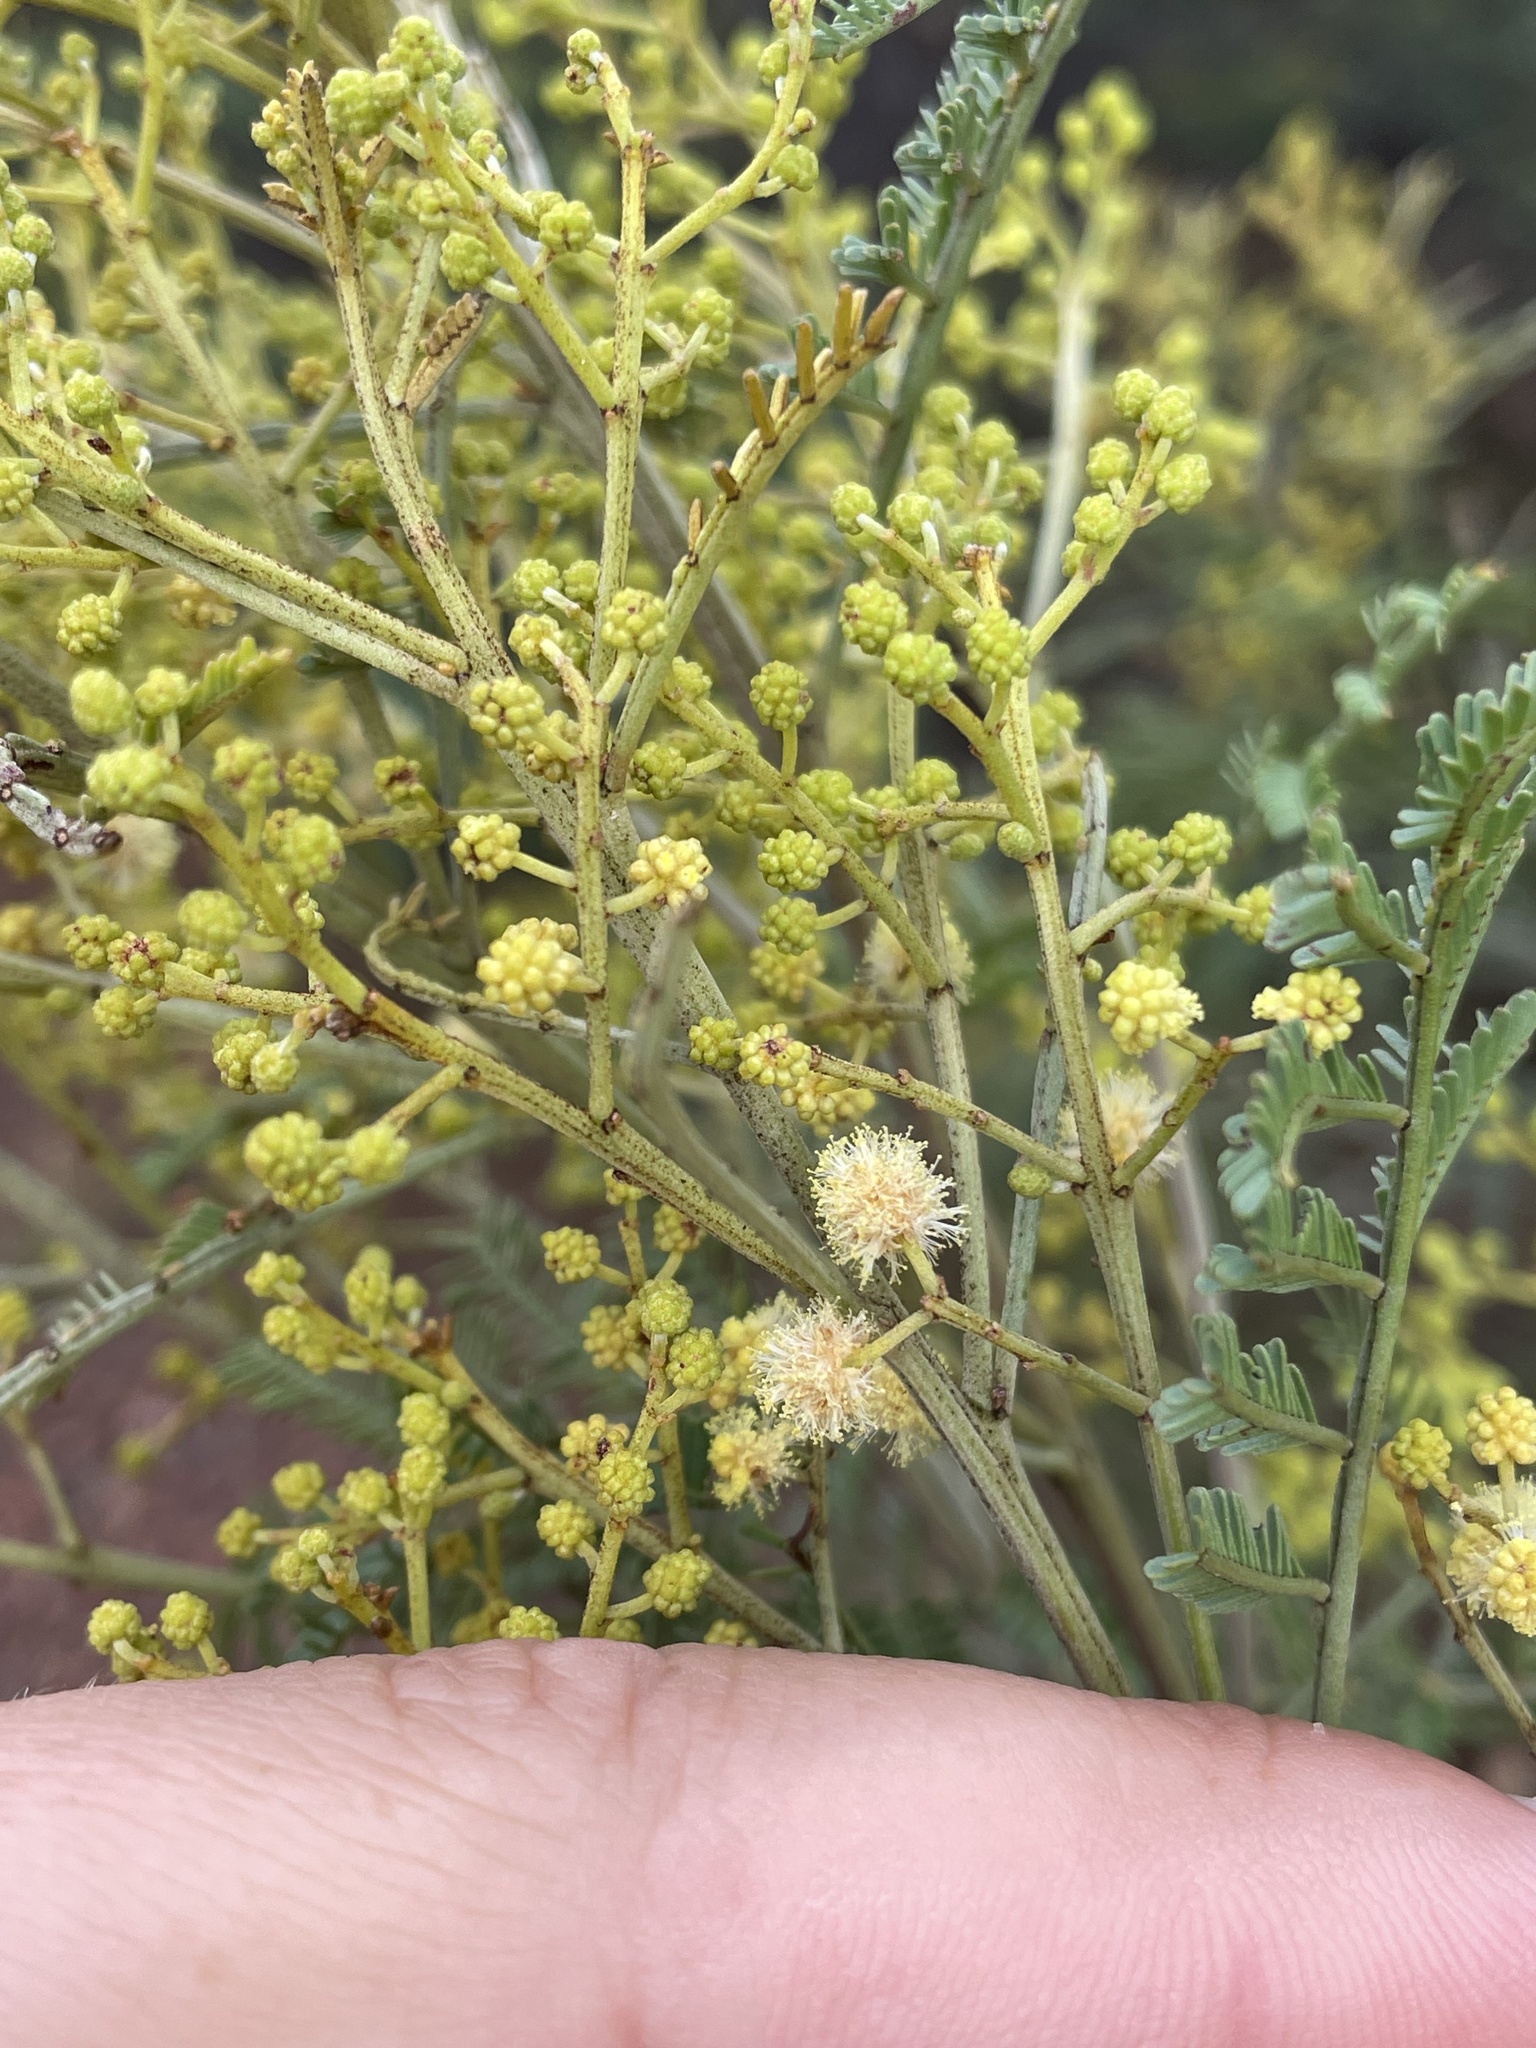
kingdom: Plantae
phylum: Tracheophyta
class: Magnoliopsida
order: Fabales
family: Fabaceae
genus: Acacia
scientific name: Acacia mearnsii
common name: Black wattle
